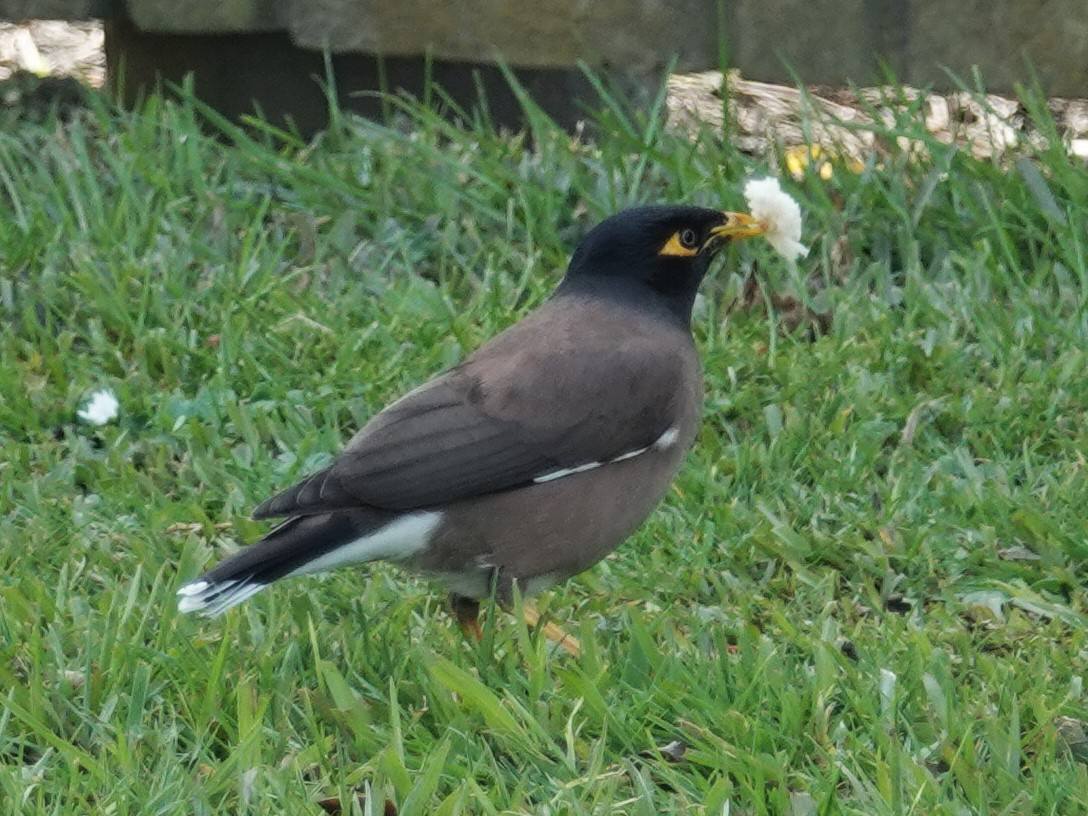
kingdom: Animalia
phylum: Chordata
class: Aves
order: Passeriformes
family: Sturnidae
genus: Acridotheres
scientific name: Acridotheres tristis
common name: Common myna
